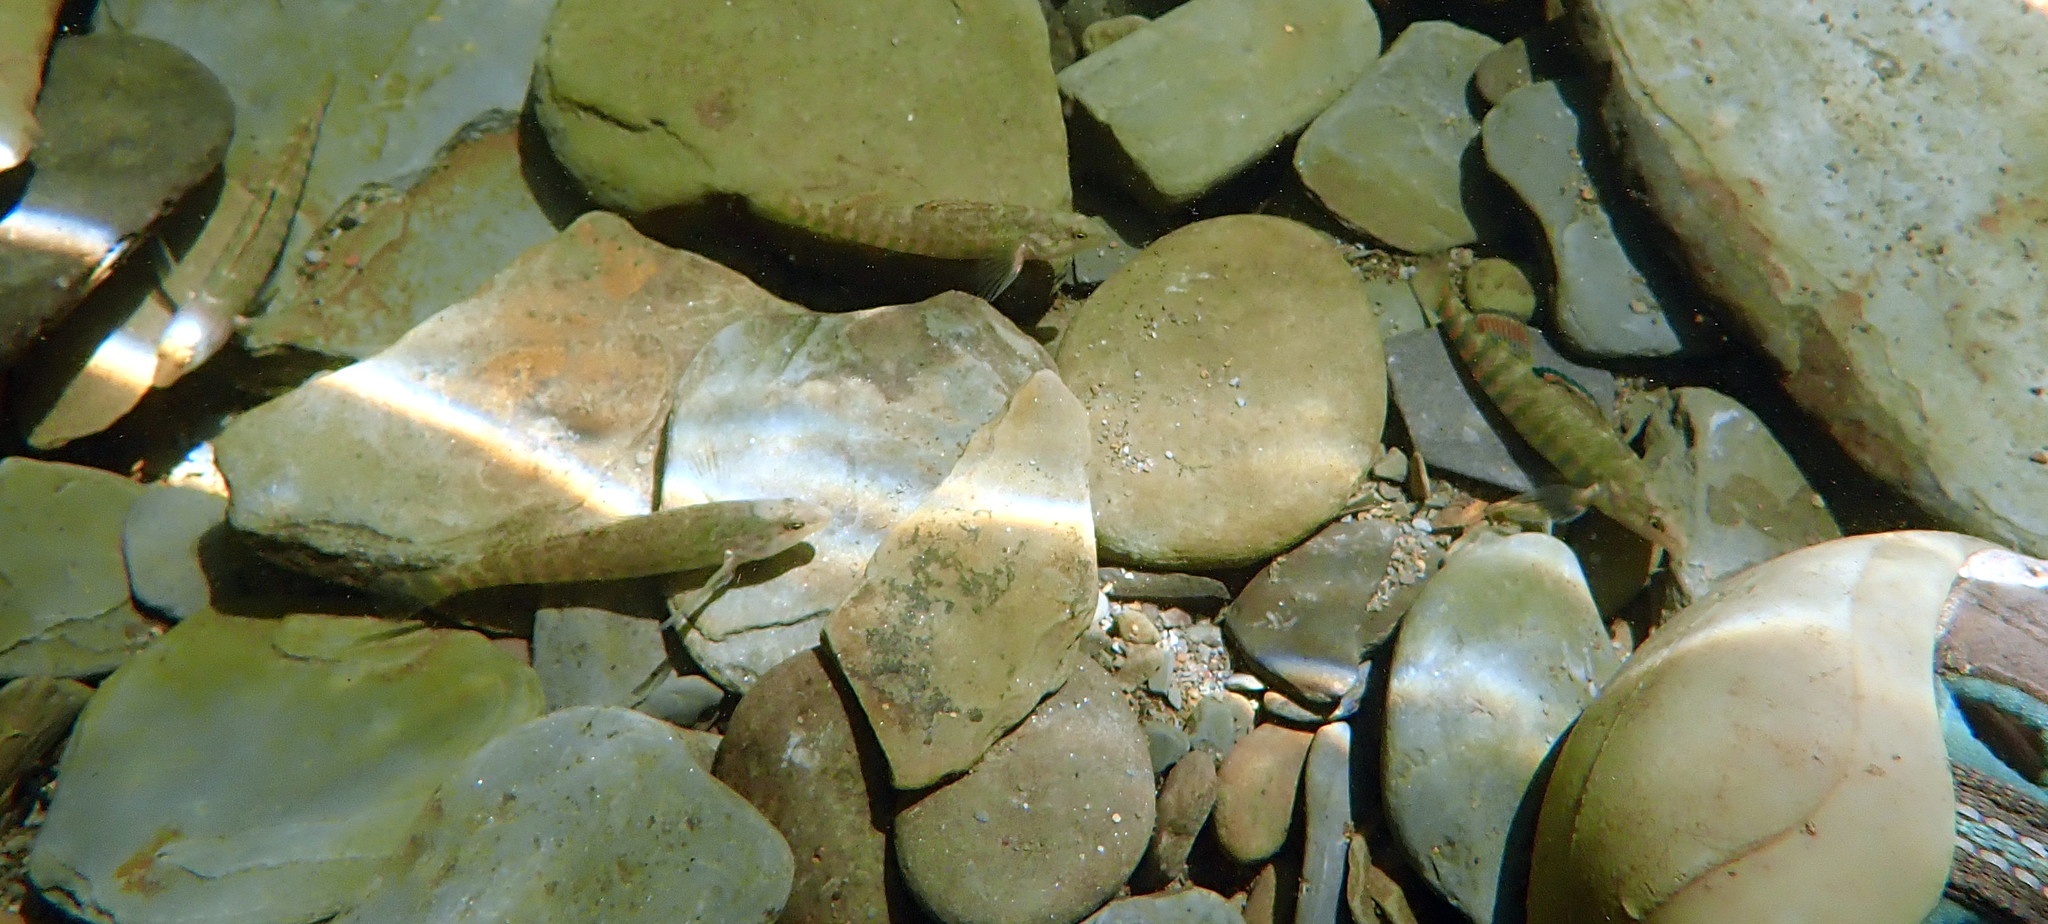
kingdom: Animalia
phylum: Chordata
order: Perciformes
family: Percidae
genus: Etheostoma
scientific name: Etheostoma
